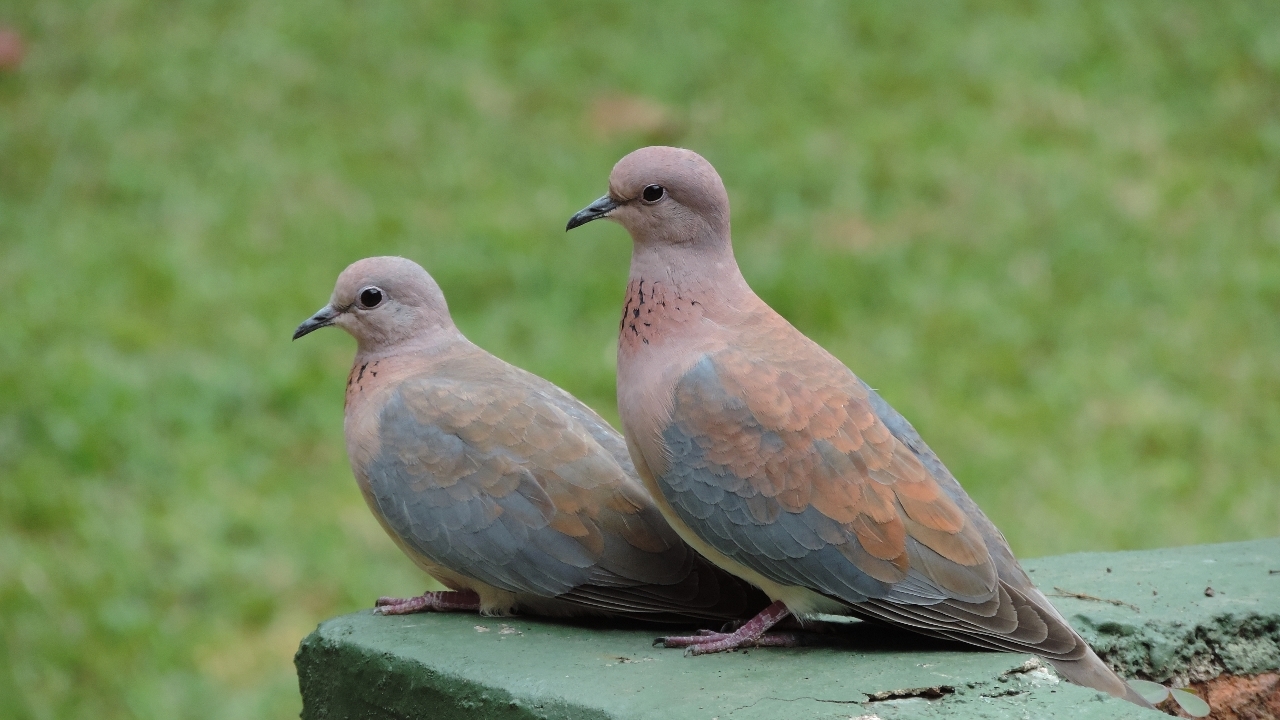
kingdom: Animalia
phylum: Chordata
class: Aves
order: Columbiformes
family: Columbidae
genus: Spilopelia
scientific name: Spilopelia senegalensis
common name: Laughing dove
